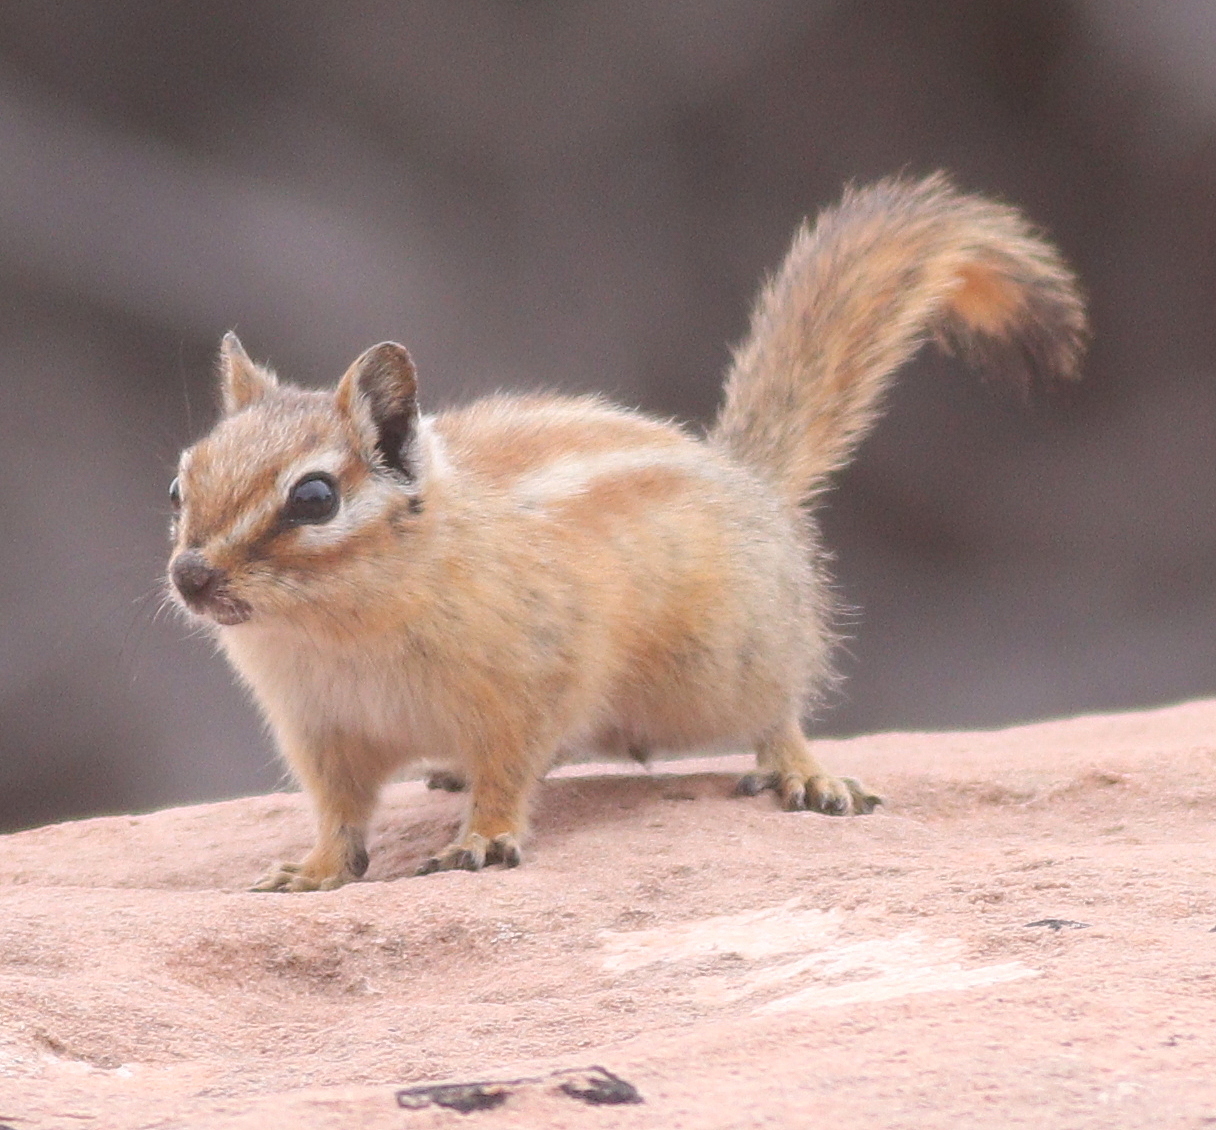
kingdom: Animalia
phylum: Chordata
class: Mammalia
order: Rodentia
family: Sciuridae
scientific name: Sciuridae
